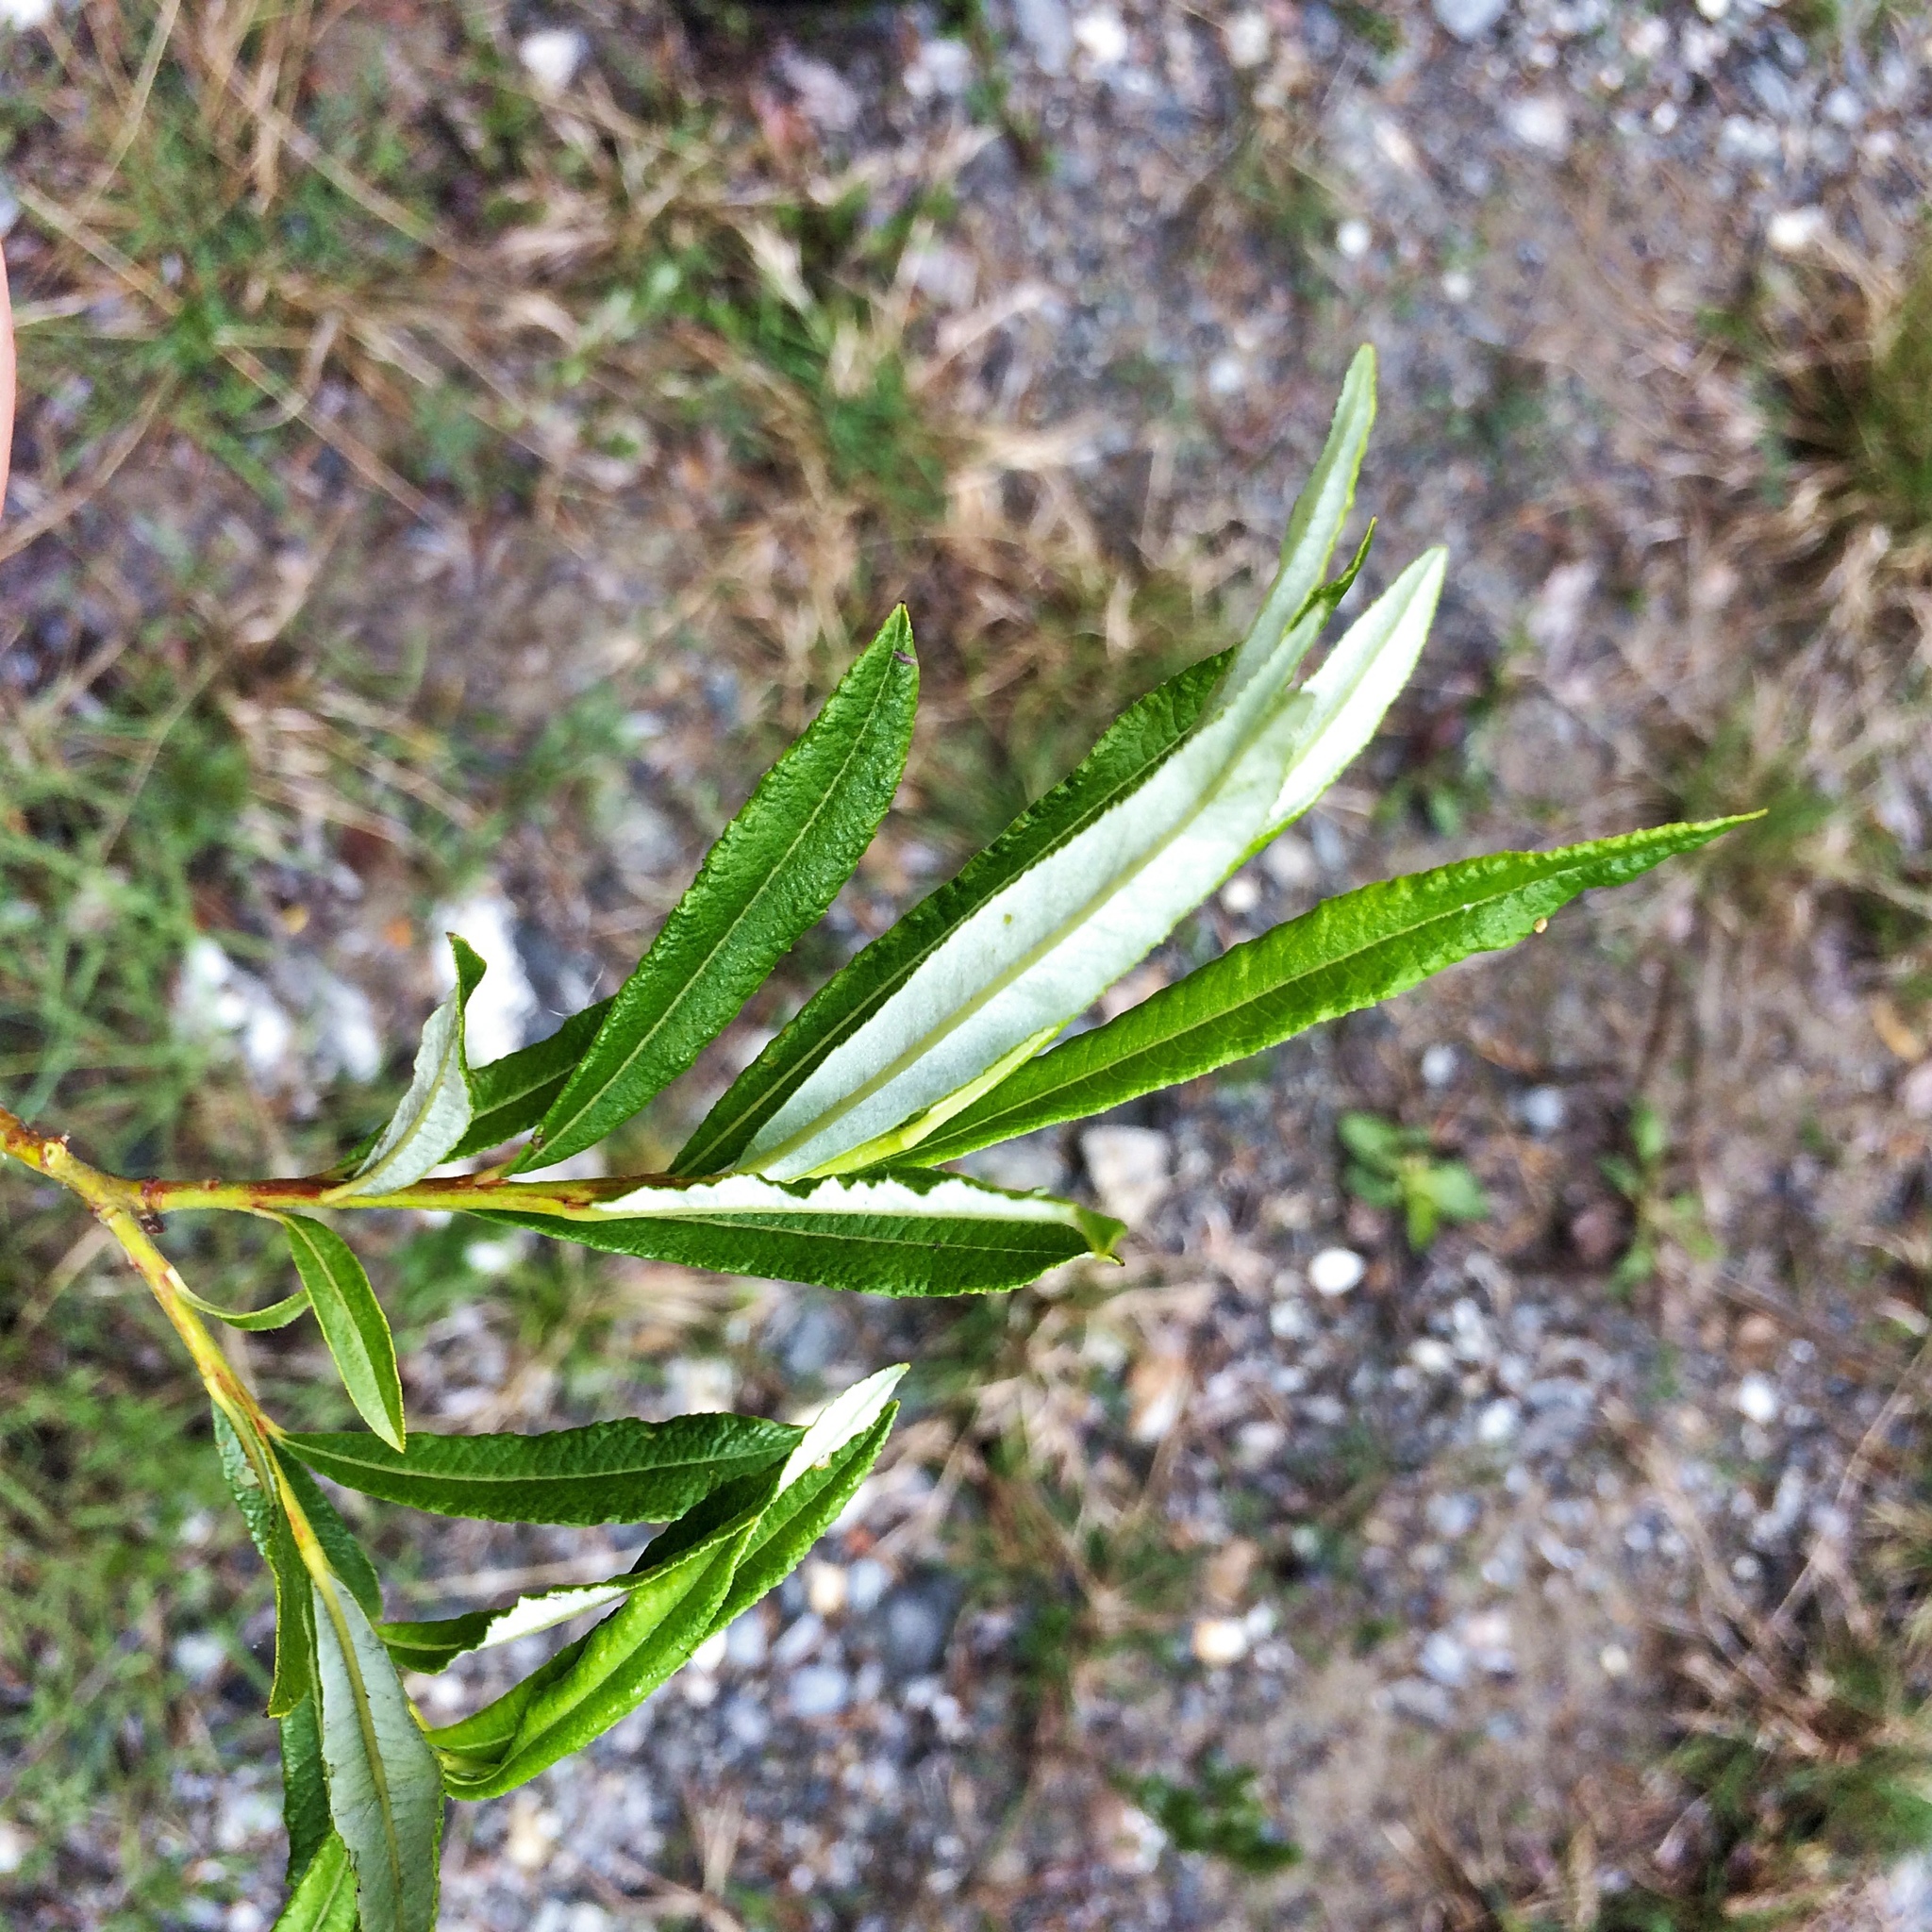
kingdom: Plantae
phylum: Tracheophyta
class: Magnoliopsida
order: Malpighiales
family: Salicaceae
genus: Salix
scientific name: Salix eleagnos
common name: Elaeagnus willow
